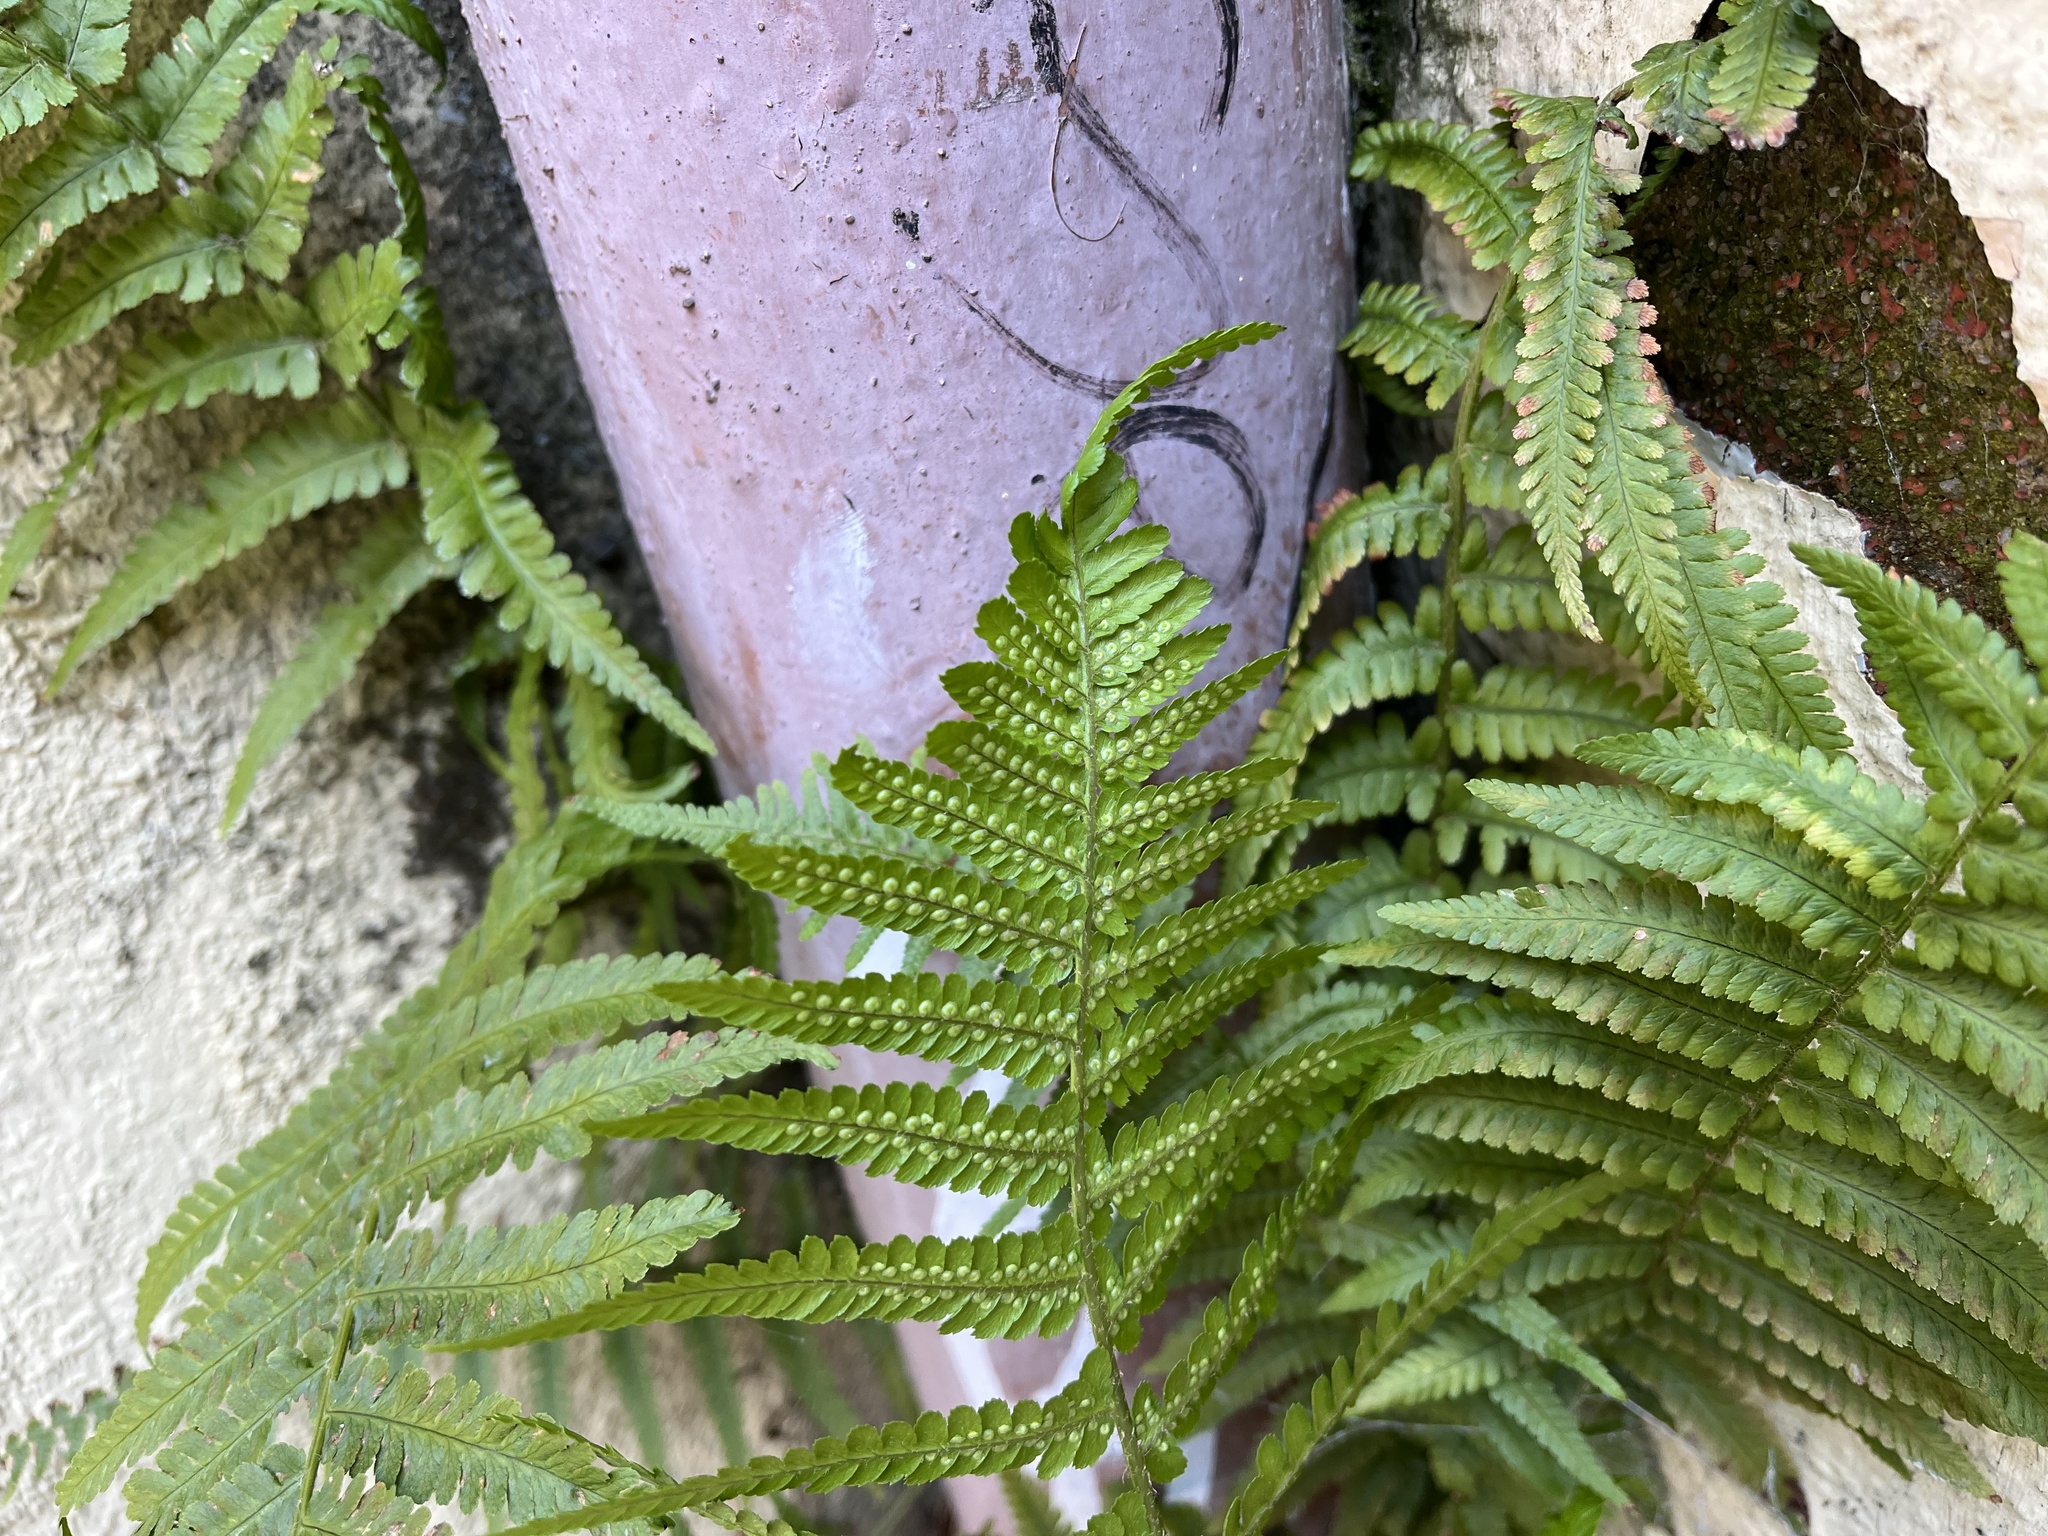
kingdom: Plantae
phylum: Tracheophyta
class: Polypodiopsida
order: Polypodiales
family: Dryopteridaceae
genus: Dryopteris
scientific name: Dryopteris filix-mas
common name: Male fern
